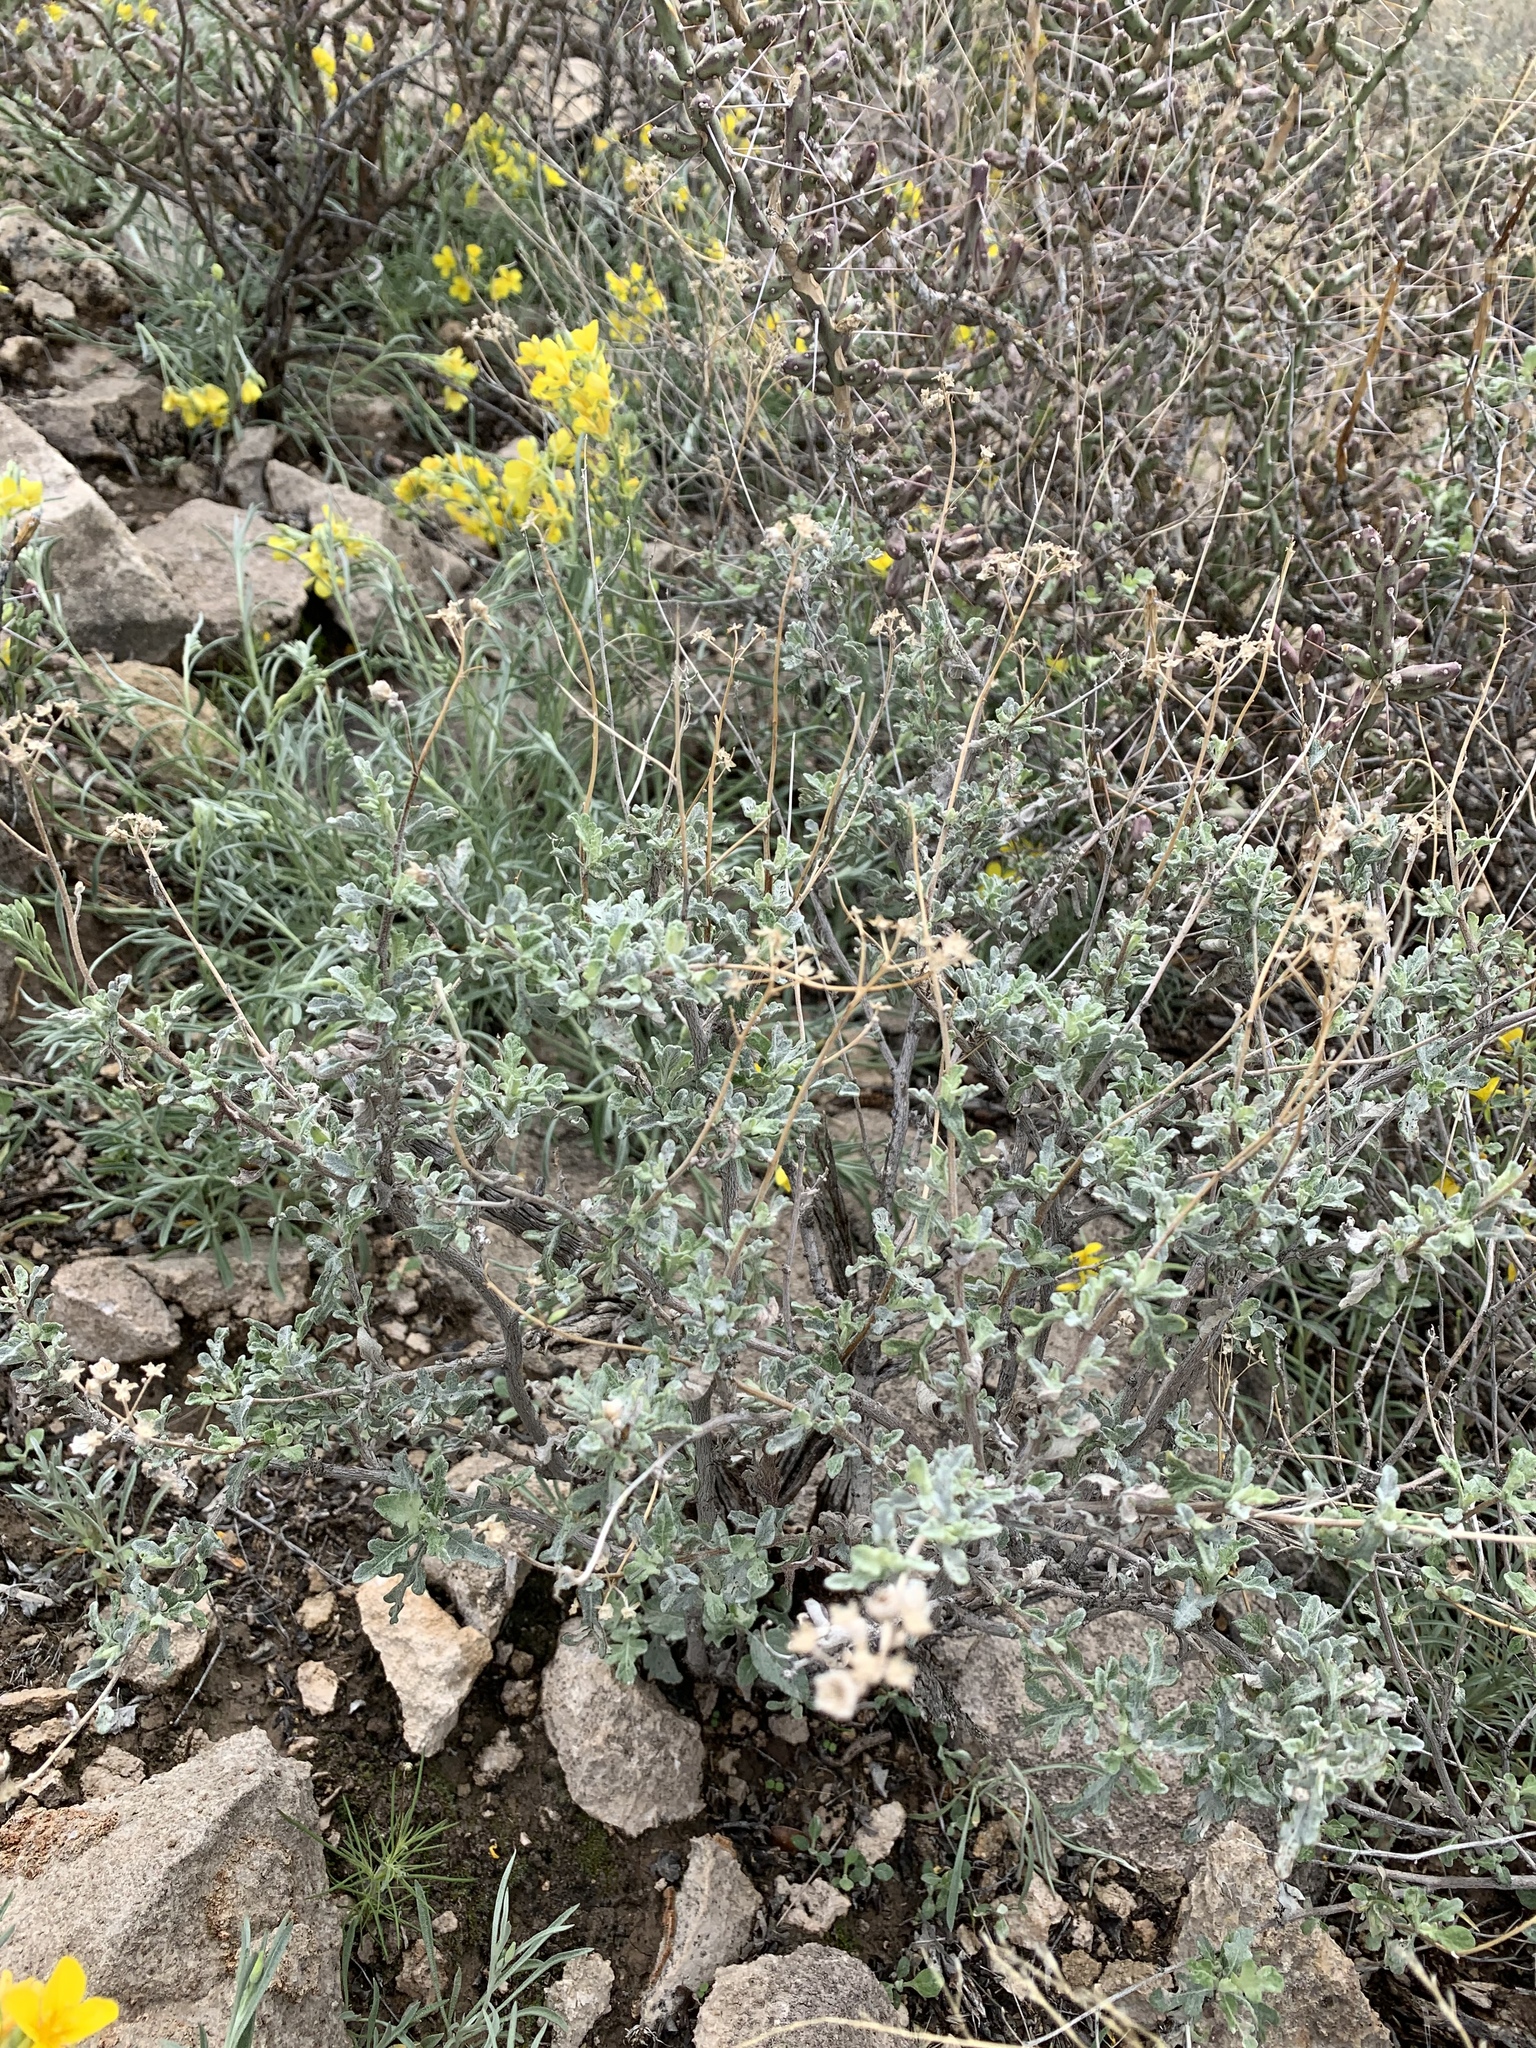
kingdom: Plantae
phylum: Tracheophyta
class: Magnoliopsida
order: Asterales
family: Asteraceae
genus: Parthenium
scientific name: Parthenium incanum
